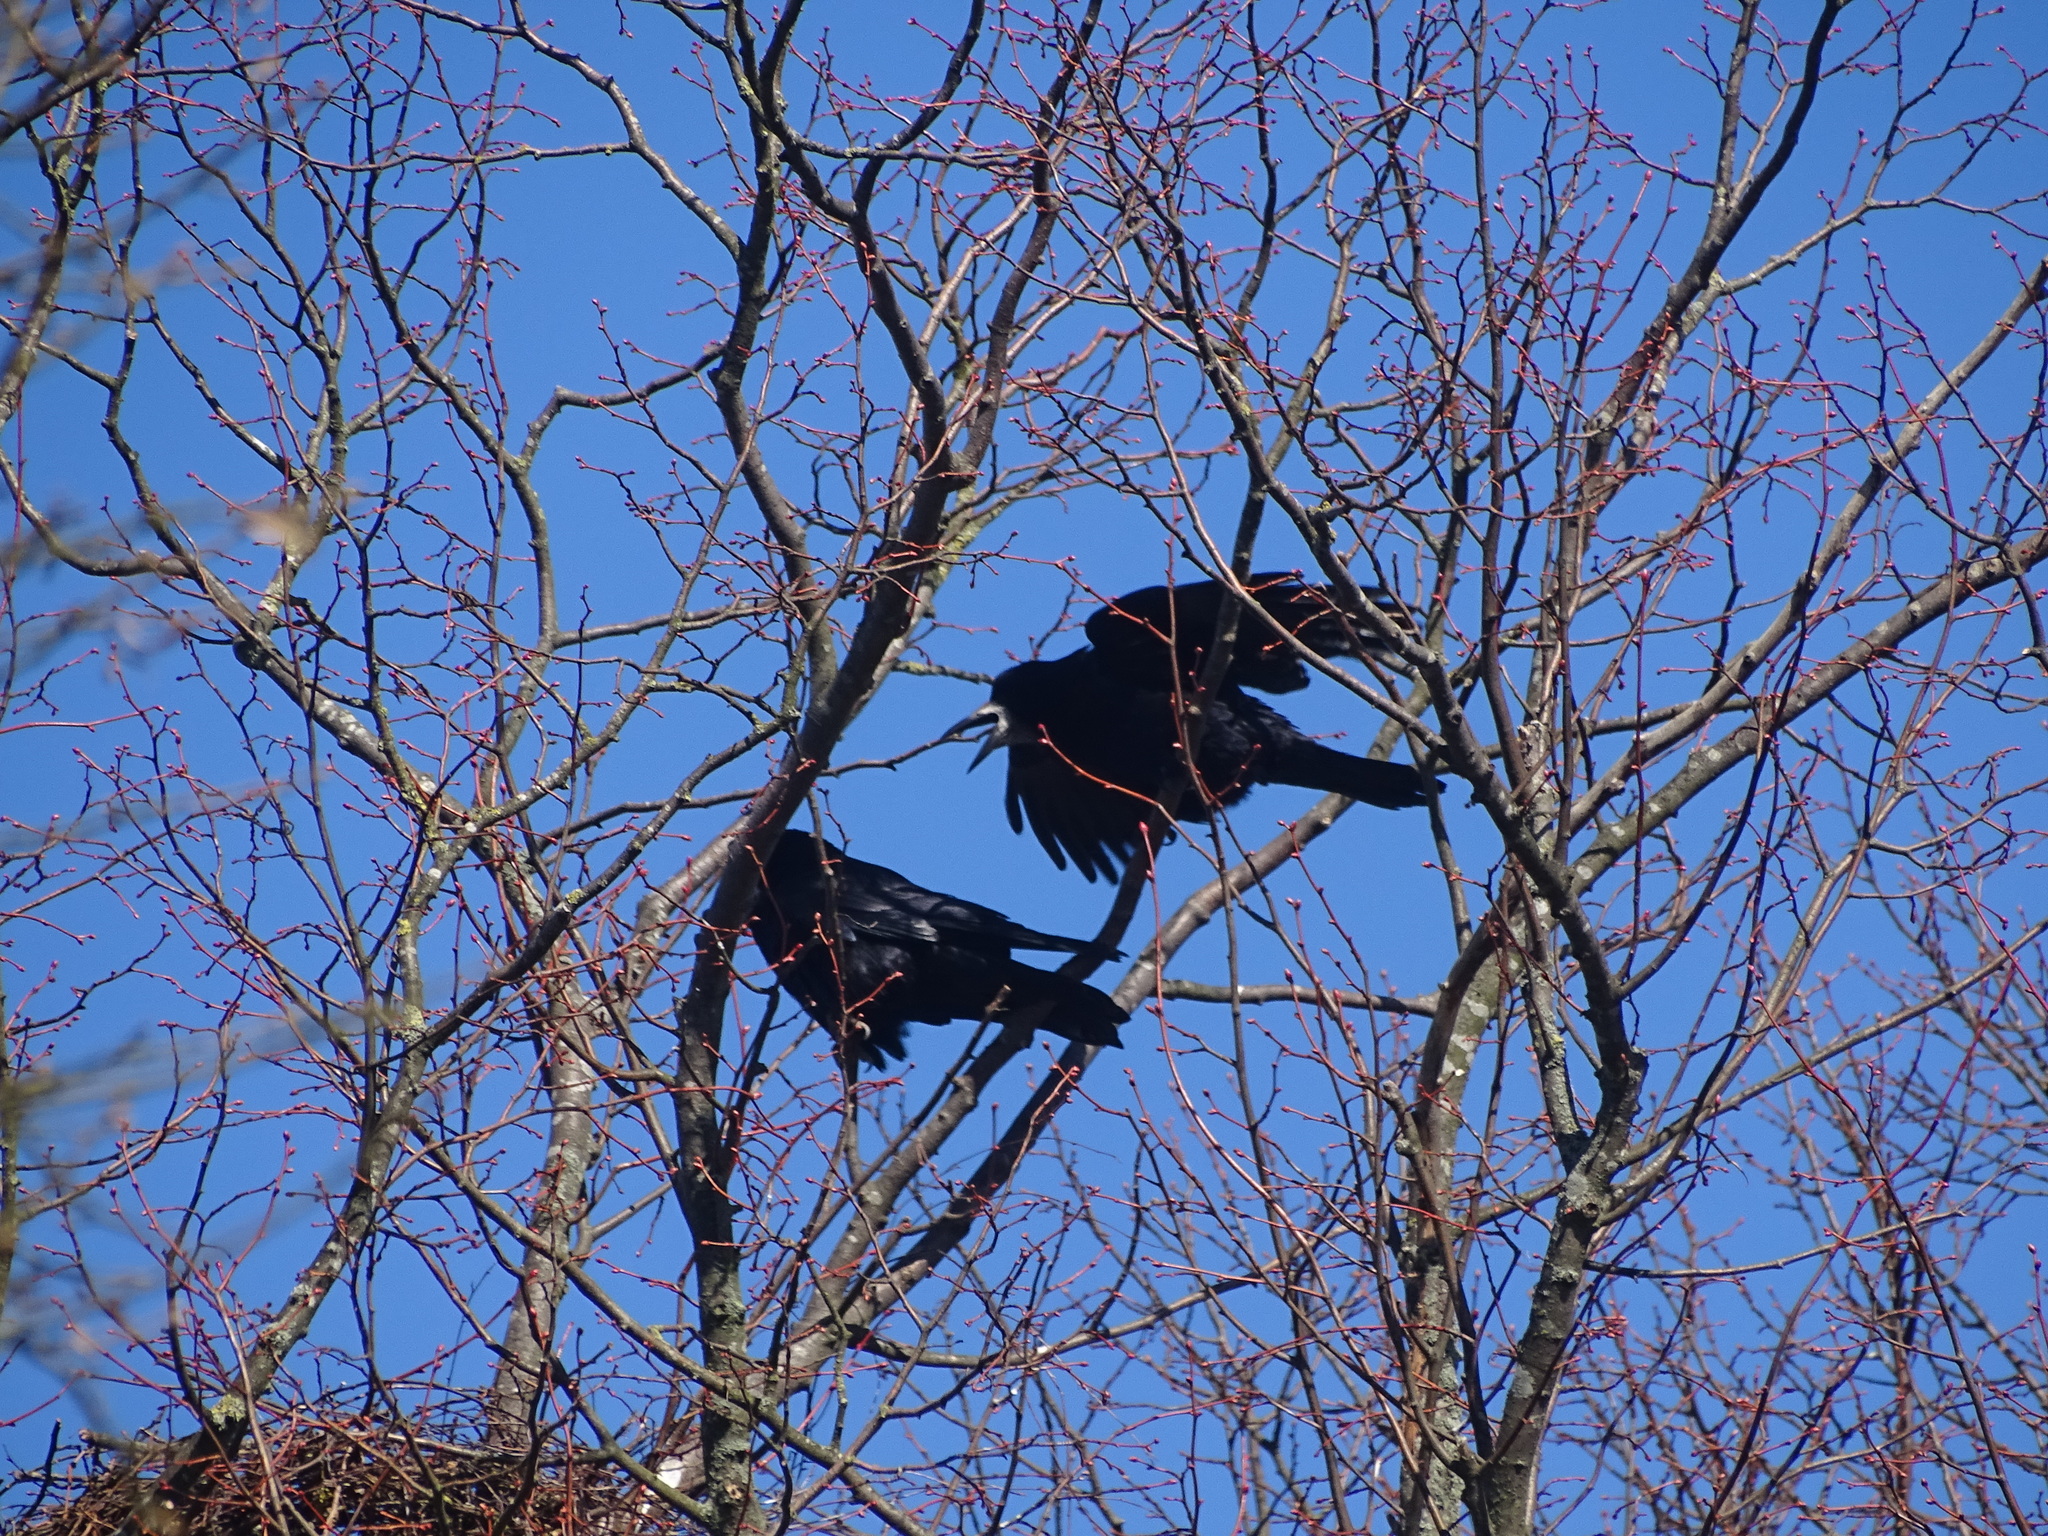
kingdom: Animalia
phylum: Chordata
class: Aves
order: Passeriformes
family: Corvidae
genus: Corvus
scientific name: Corvus frugilegus
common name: Rook
